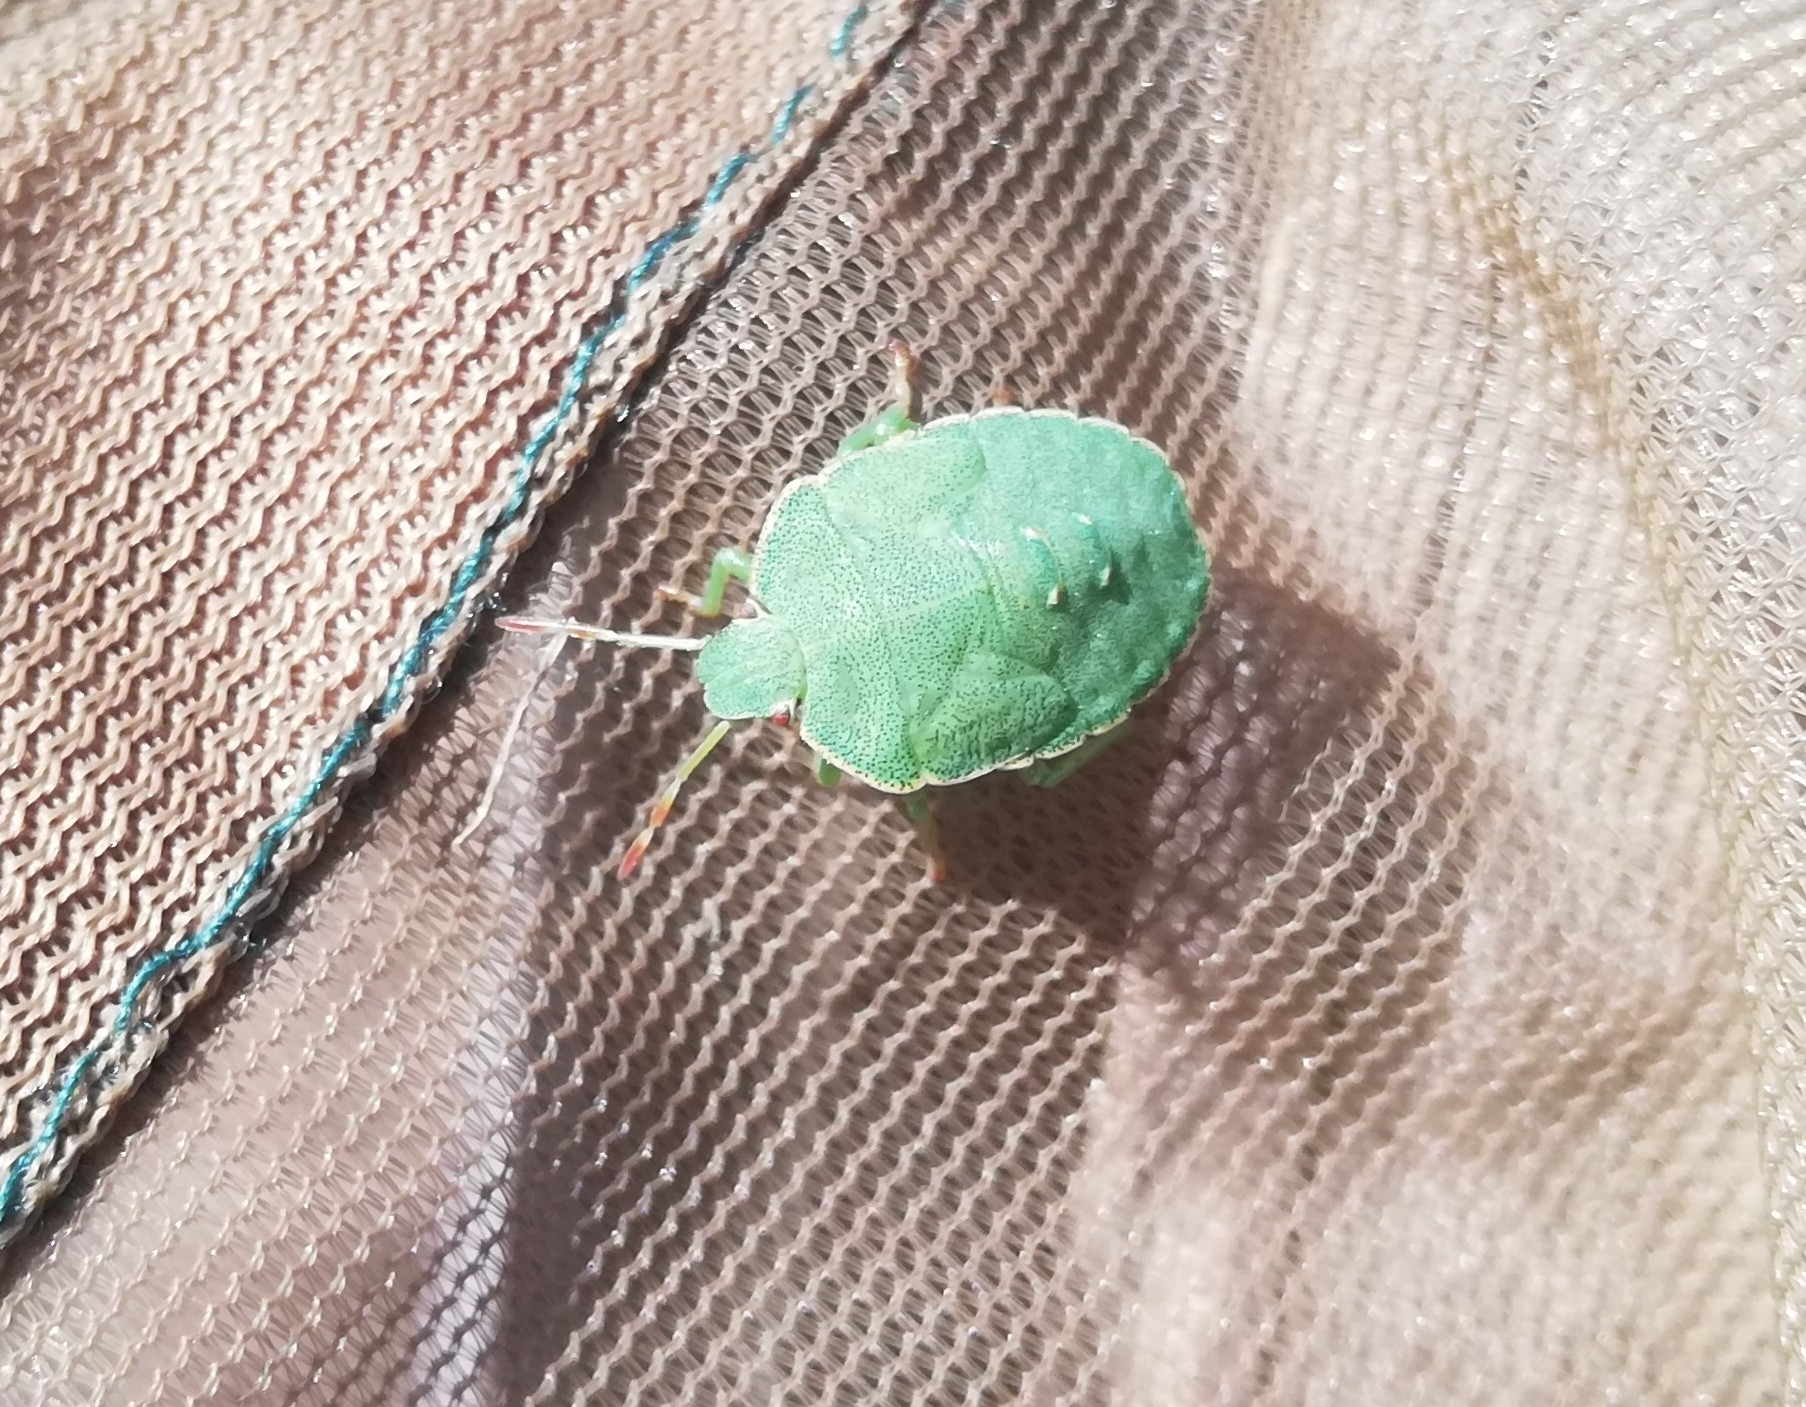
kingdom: Animalia
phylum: Arthropoda
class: Insecta
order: Hemiptera
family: Pentatomidae
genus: Palomena
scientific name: Palomena prasina
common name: Green shieldbug
